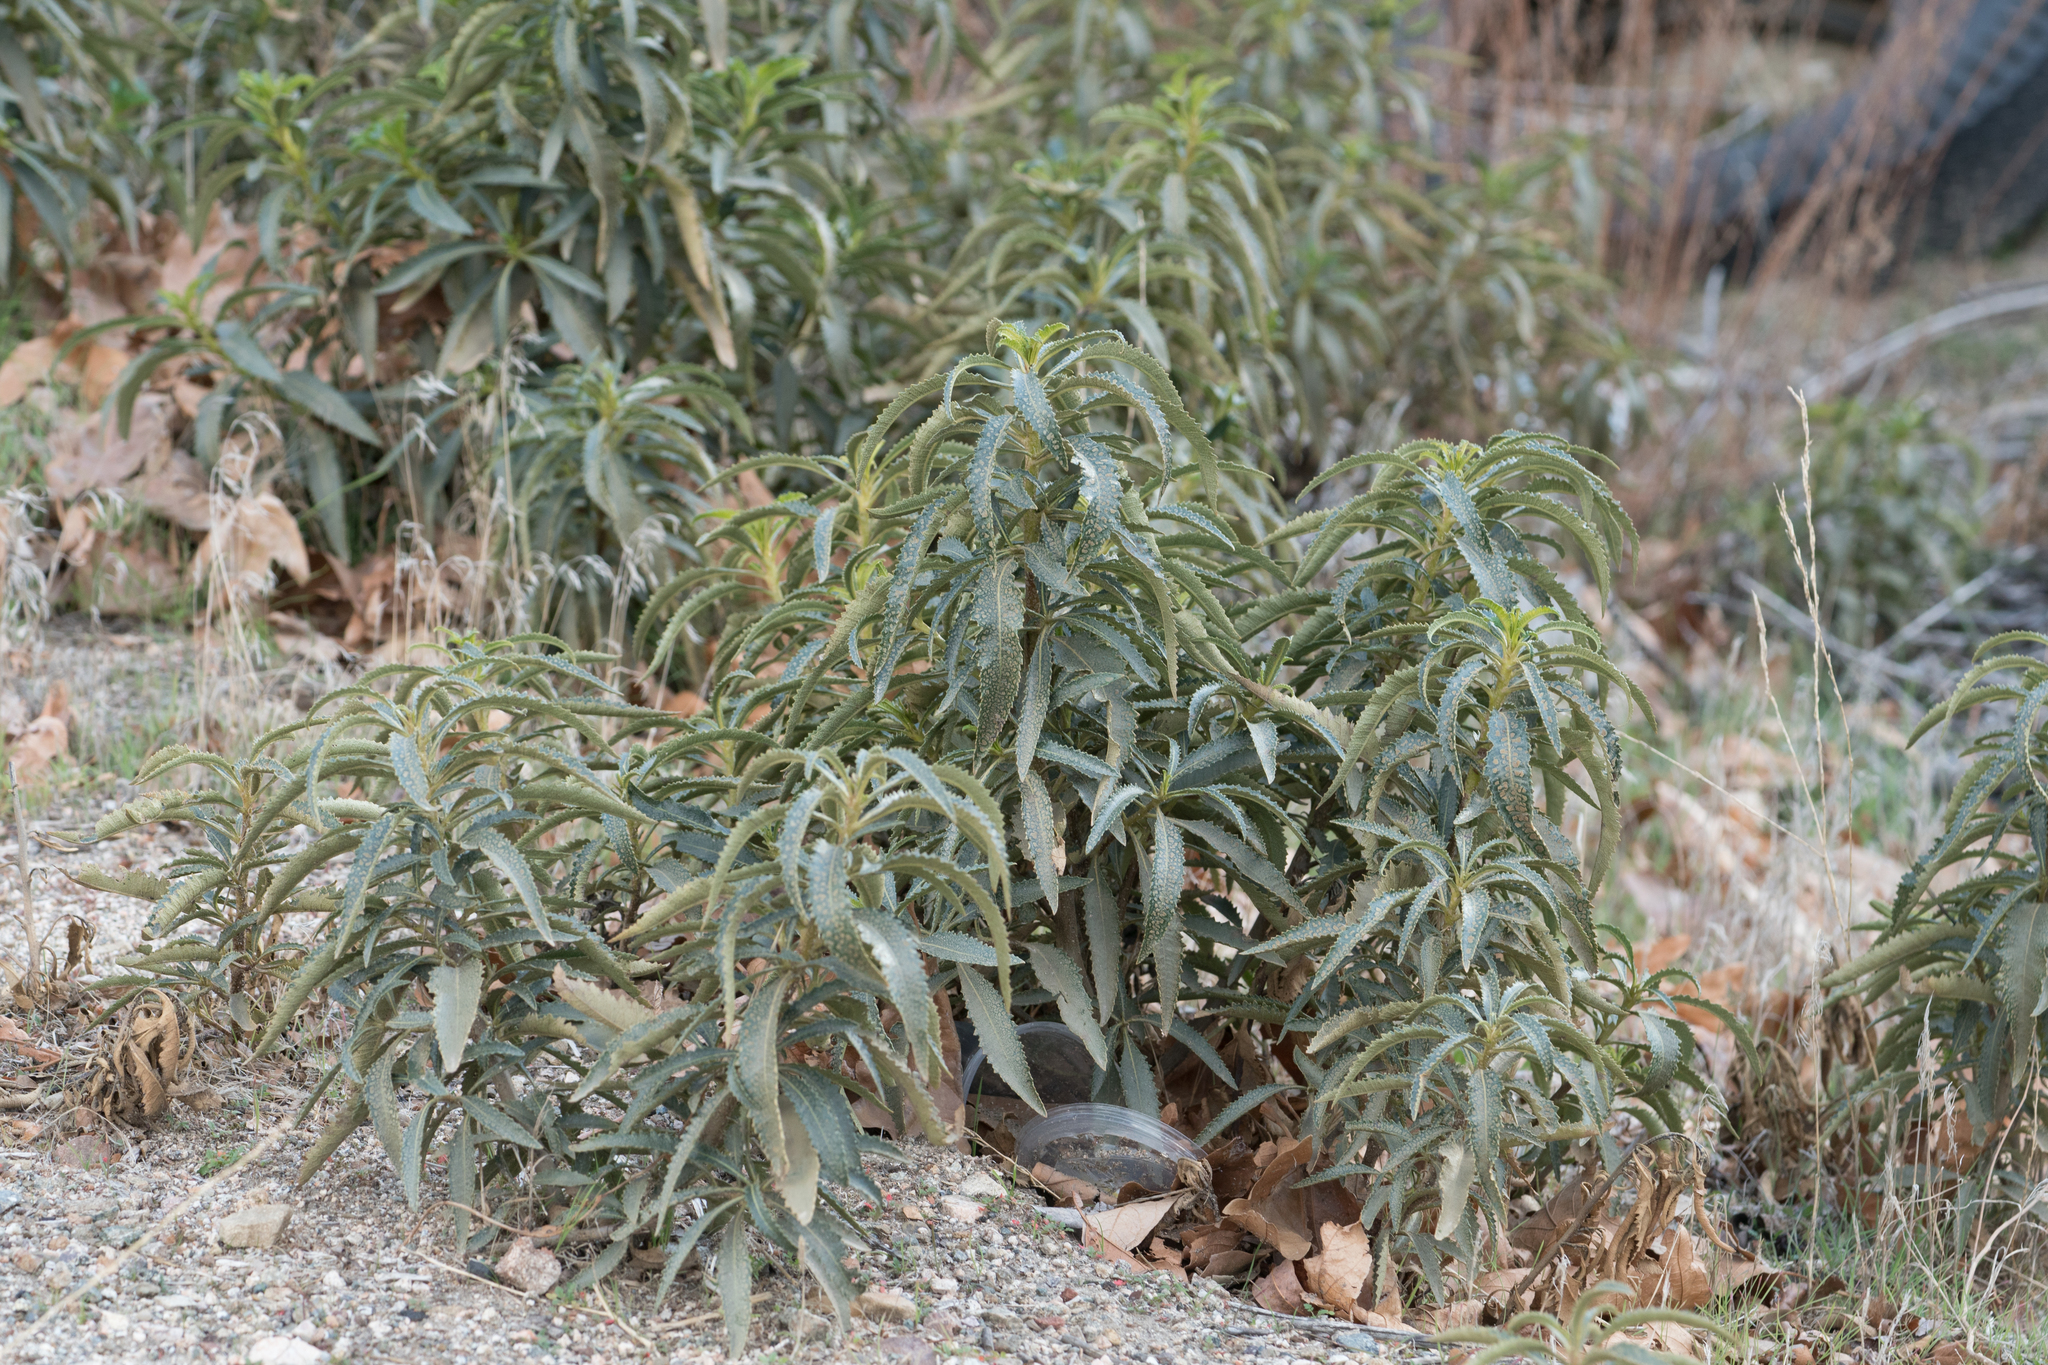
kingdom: Plantae
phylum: Tracheophyta
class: Magnoliopsida
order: Boraginales
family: Namaceae
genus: Eriodictyon
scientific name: Eriodictyon trichocalyx
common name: Hairy yerba-santa
